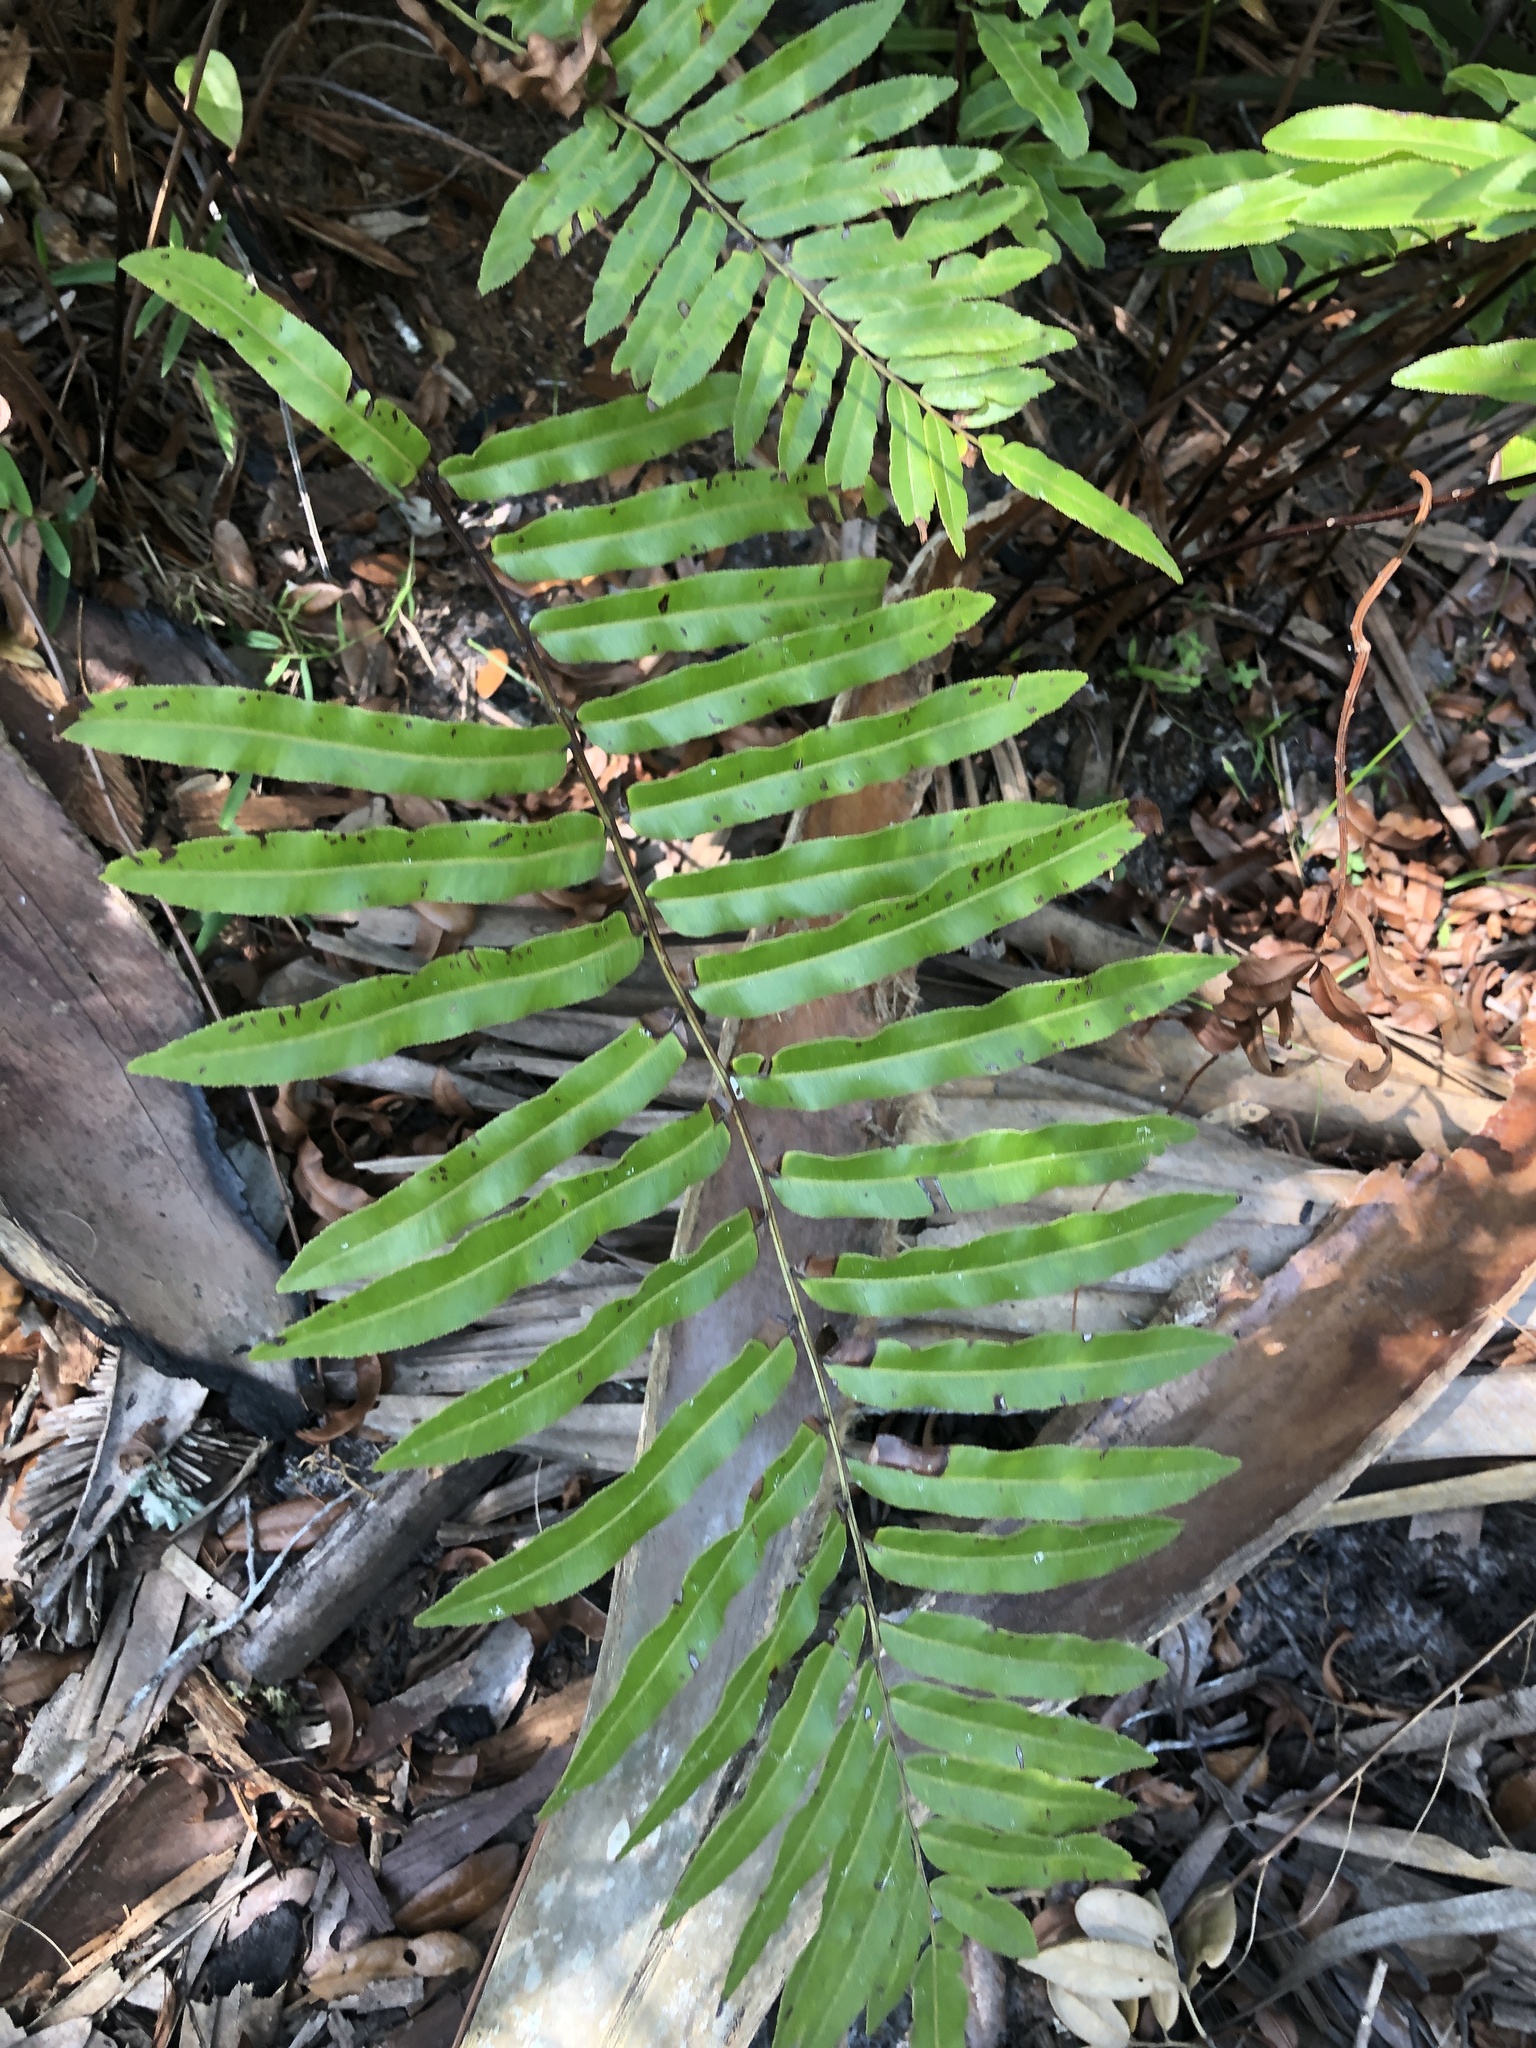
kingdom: Plantae
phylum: Tracheophyta
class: Polypodiopsida
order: Polypodiales
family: Blechnaceae
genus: Telmatoblechnum
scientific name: Telmatoblechnum serrulatum
